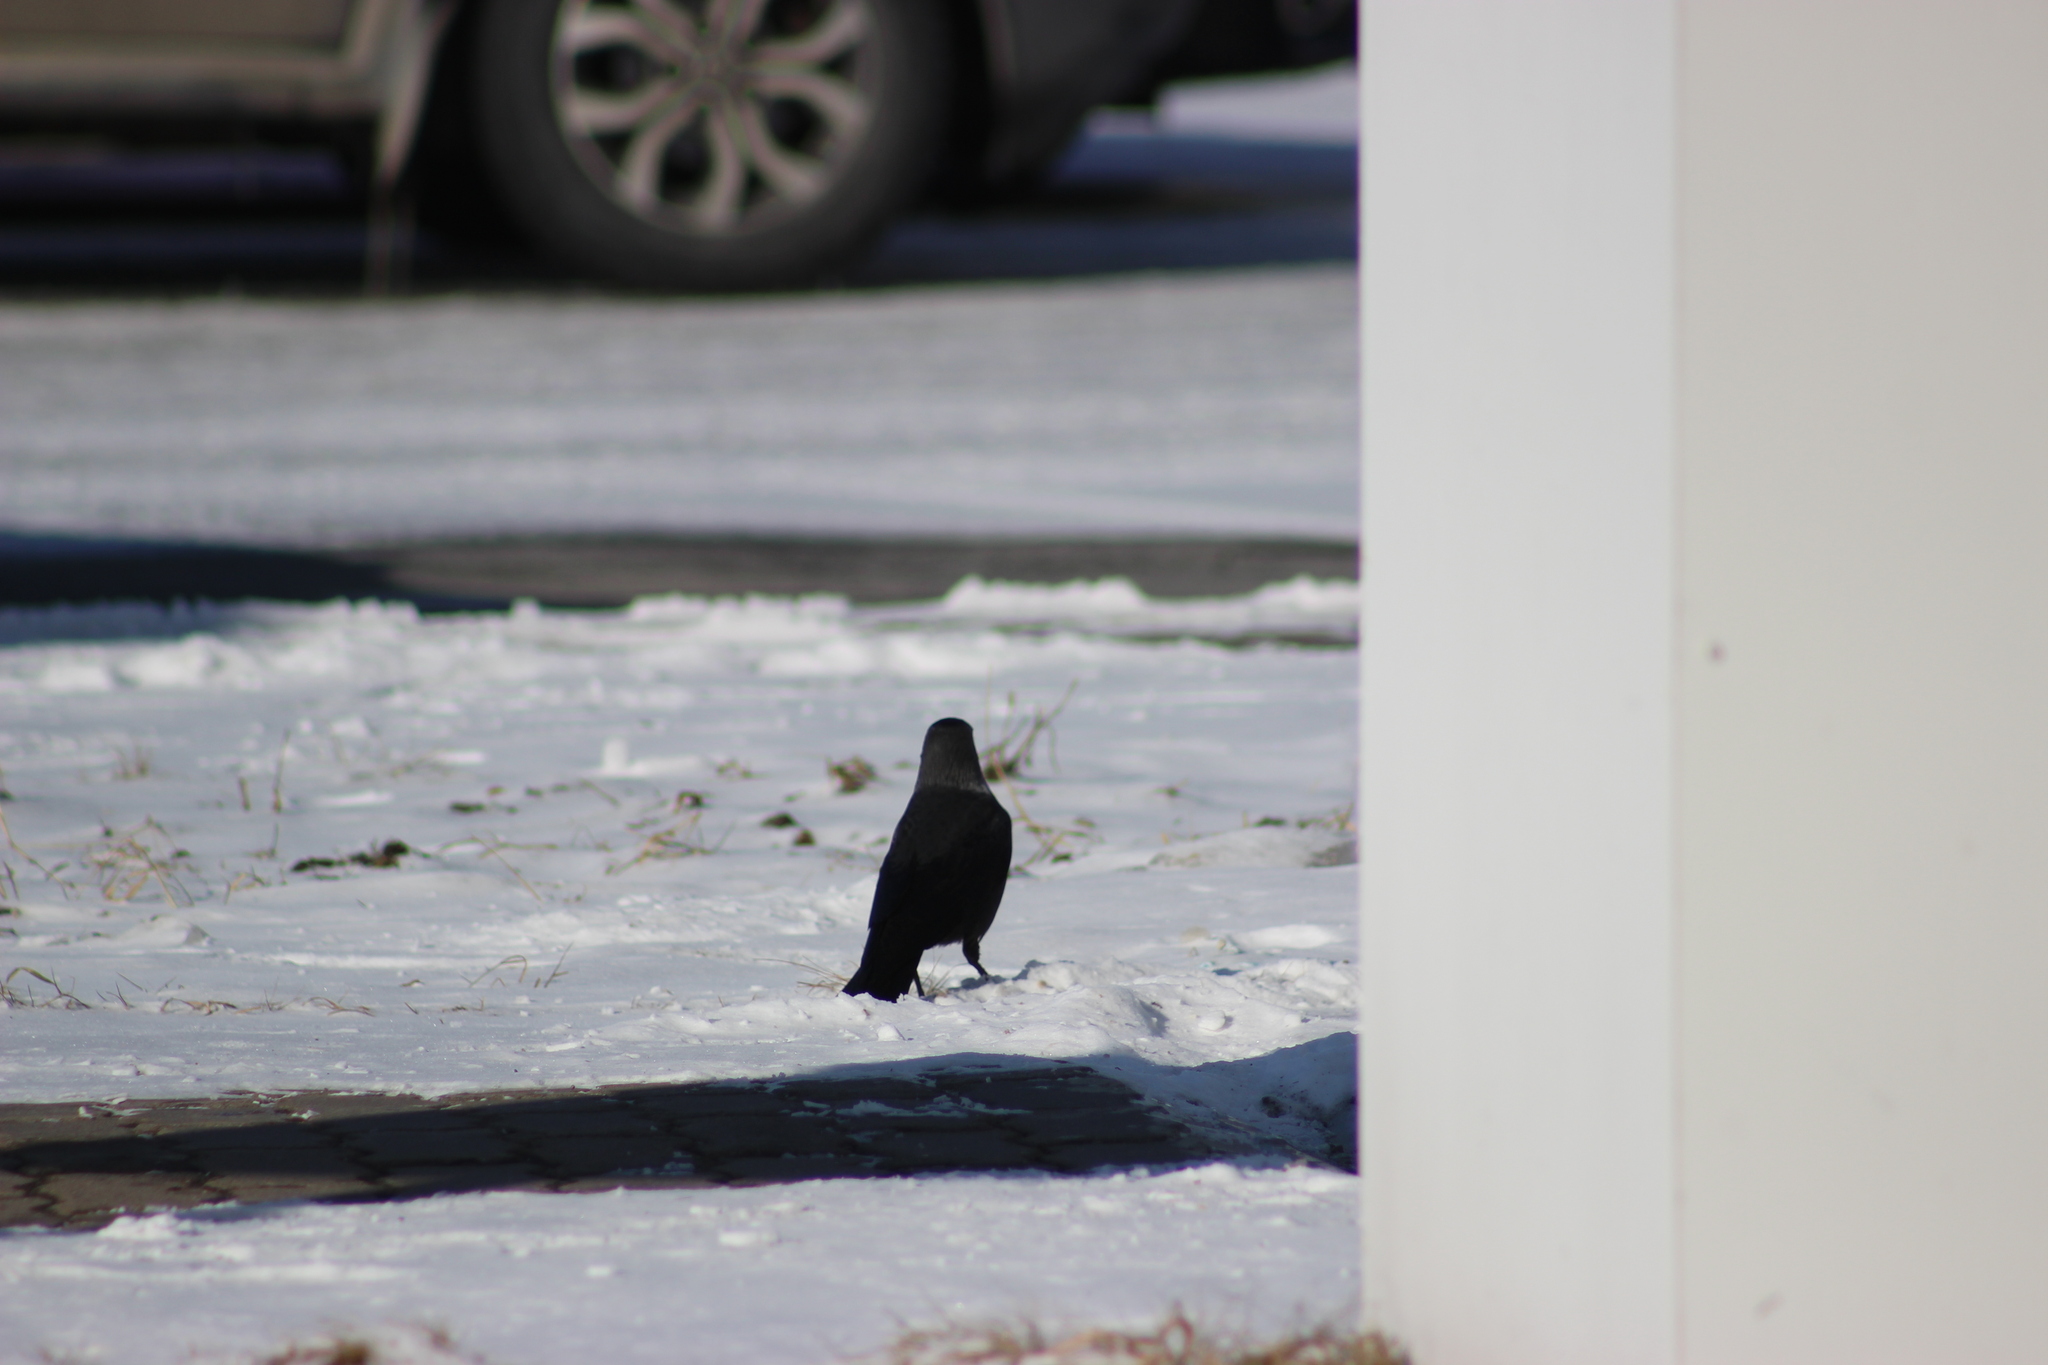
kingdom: Animalia
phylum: Chordata
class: Aves
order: Passeriformes
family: Corvidae
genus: Coloeus
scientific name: Coloeus monedula
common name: Western jackdaw
